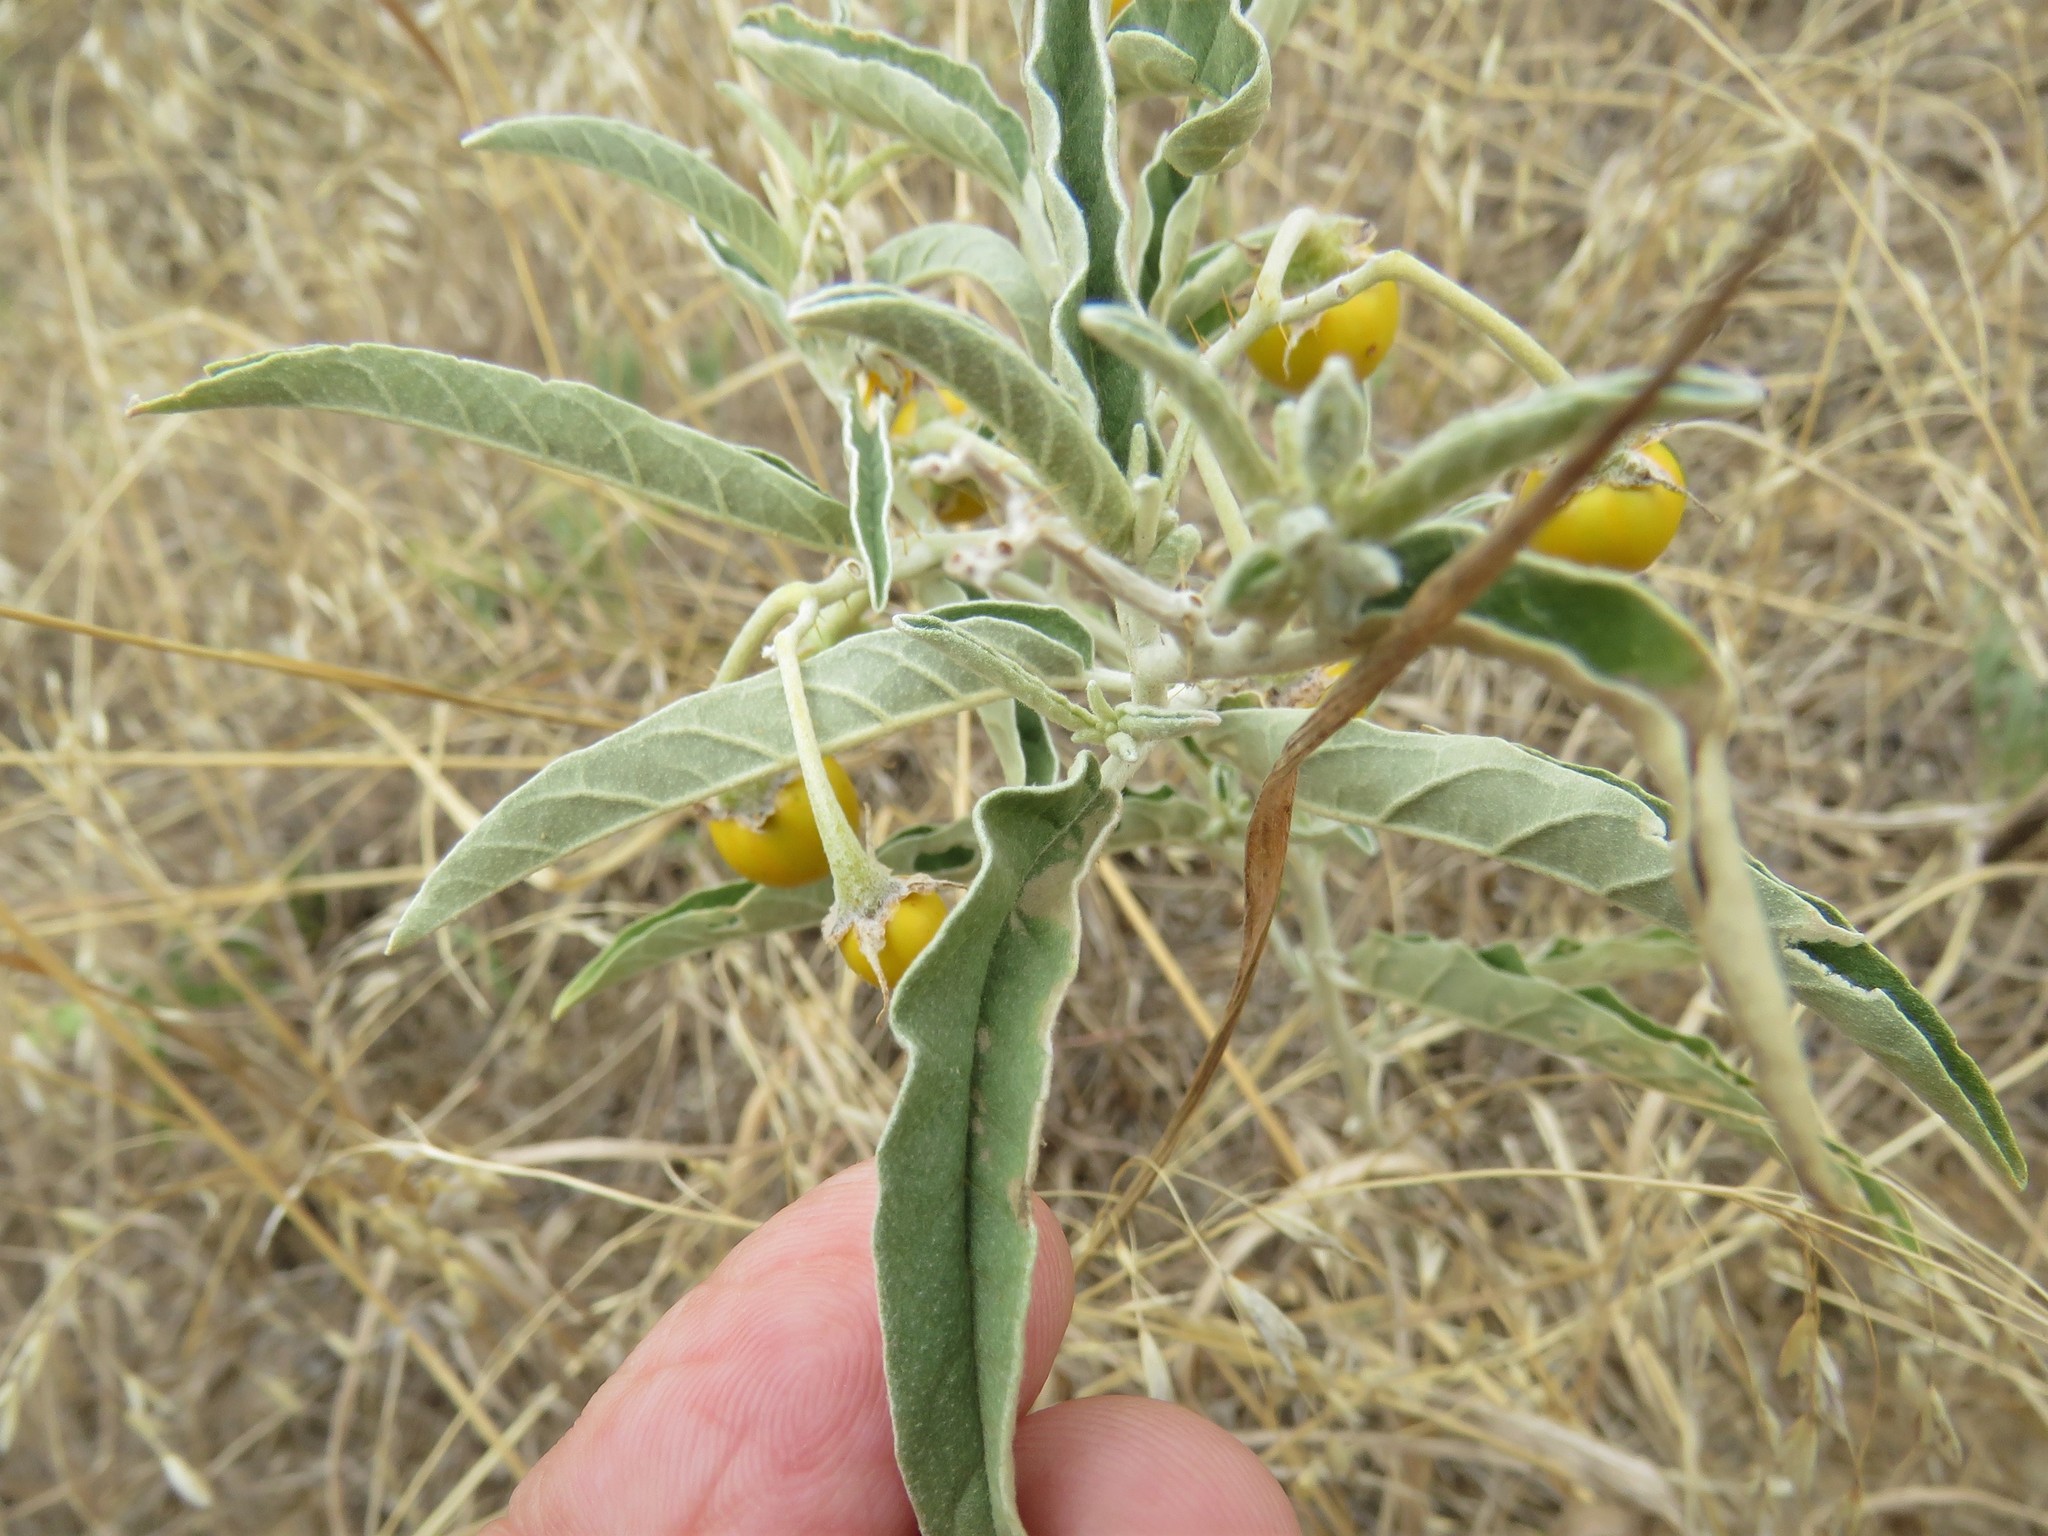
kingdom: Plantae
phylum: Tracheophyta
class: Magnoliopsida
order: Solanales
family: Solanaceae
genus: Solanum
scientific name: Solanum elaeagnifolium
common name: Silverleaf nightshade
